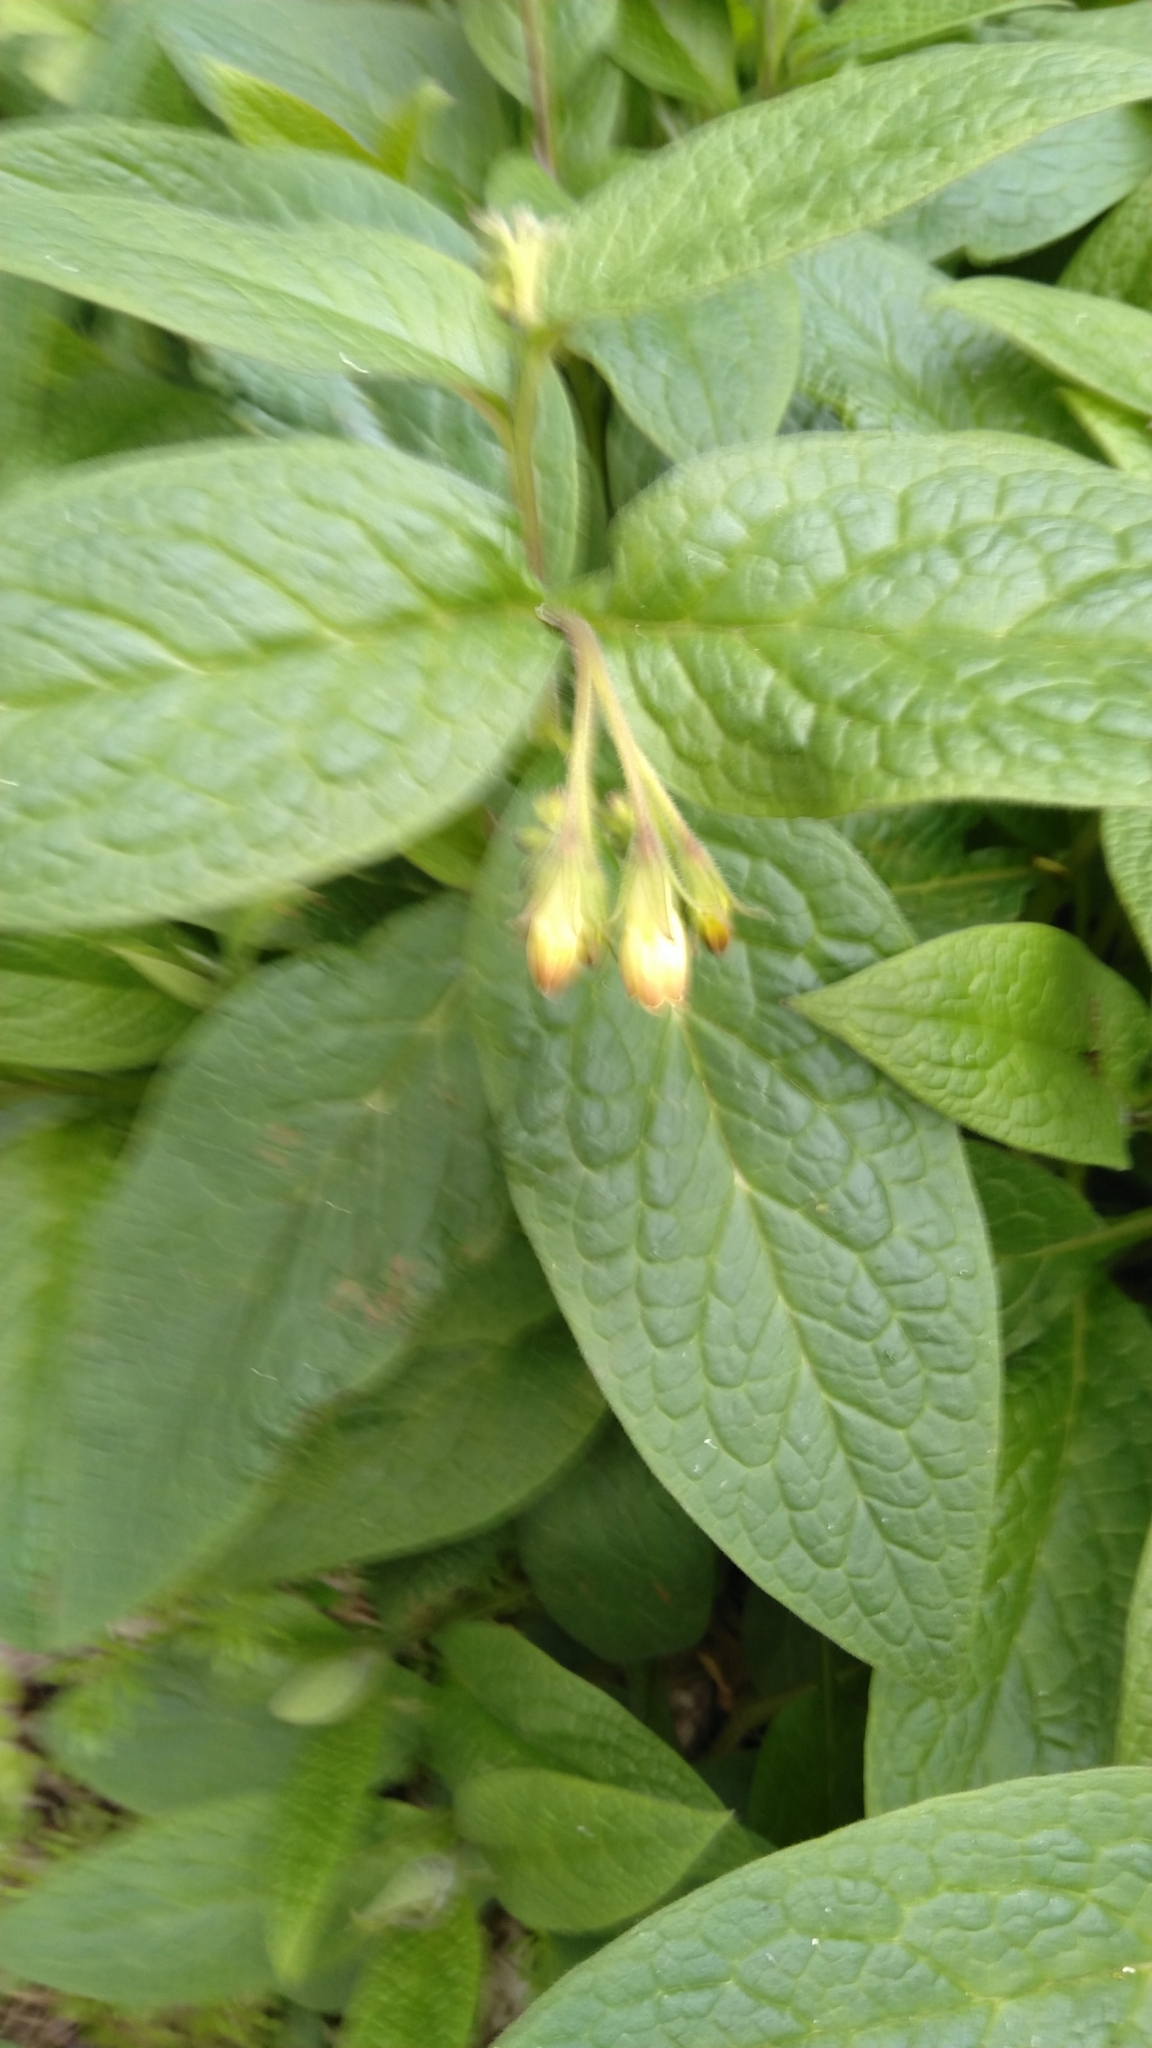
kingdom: Plantae
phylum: Tracheophyta
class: Magnoliopsida
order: Boraginales
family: Boraginaceae
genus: Symphytum
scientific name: Symphytum tuberosum
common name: Tuberous comfrey
